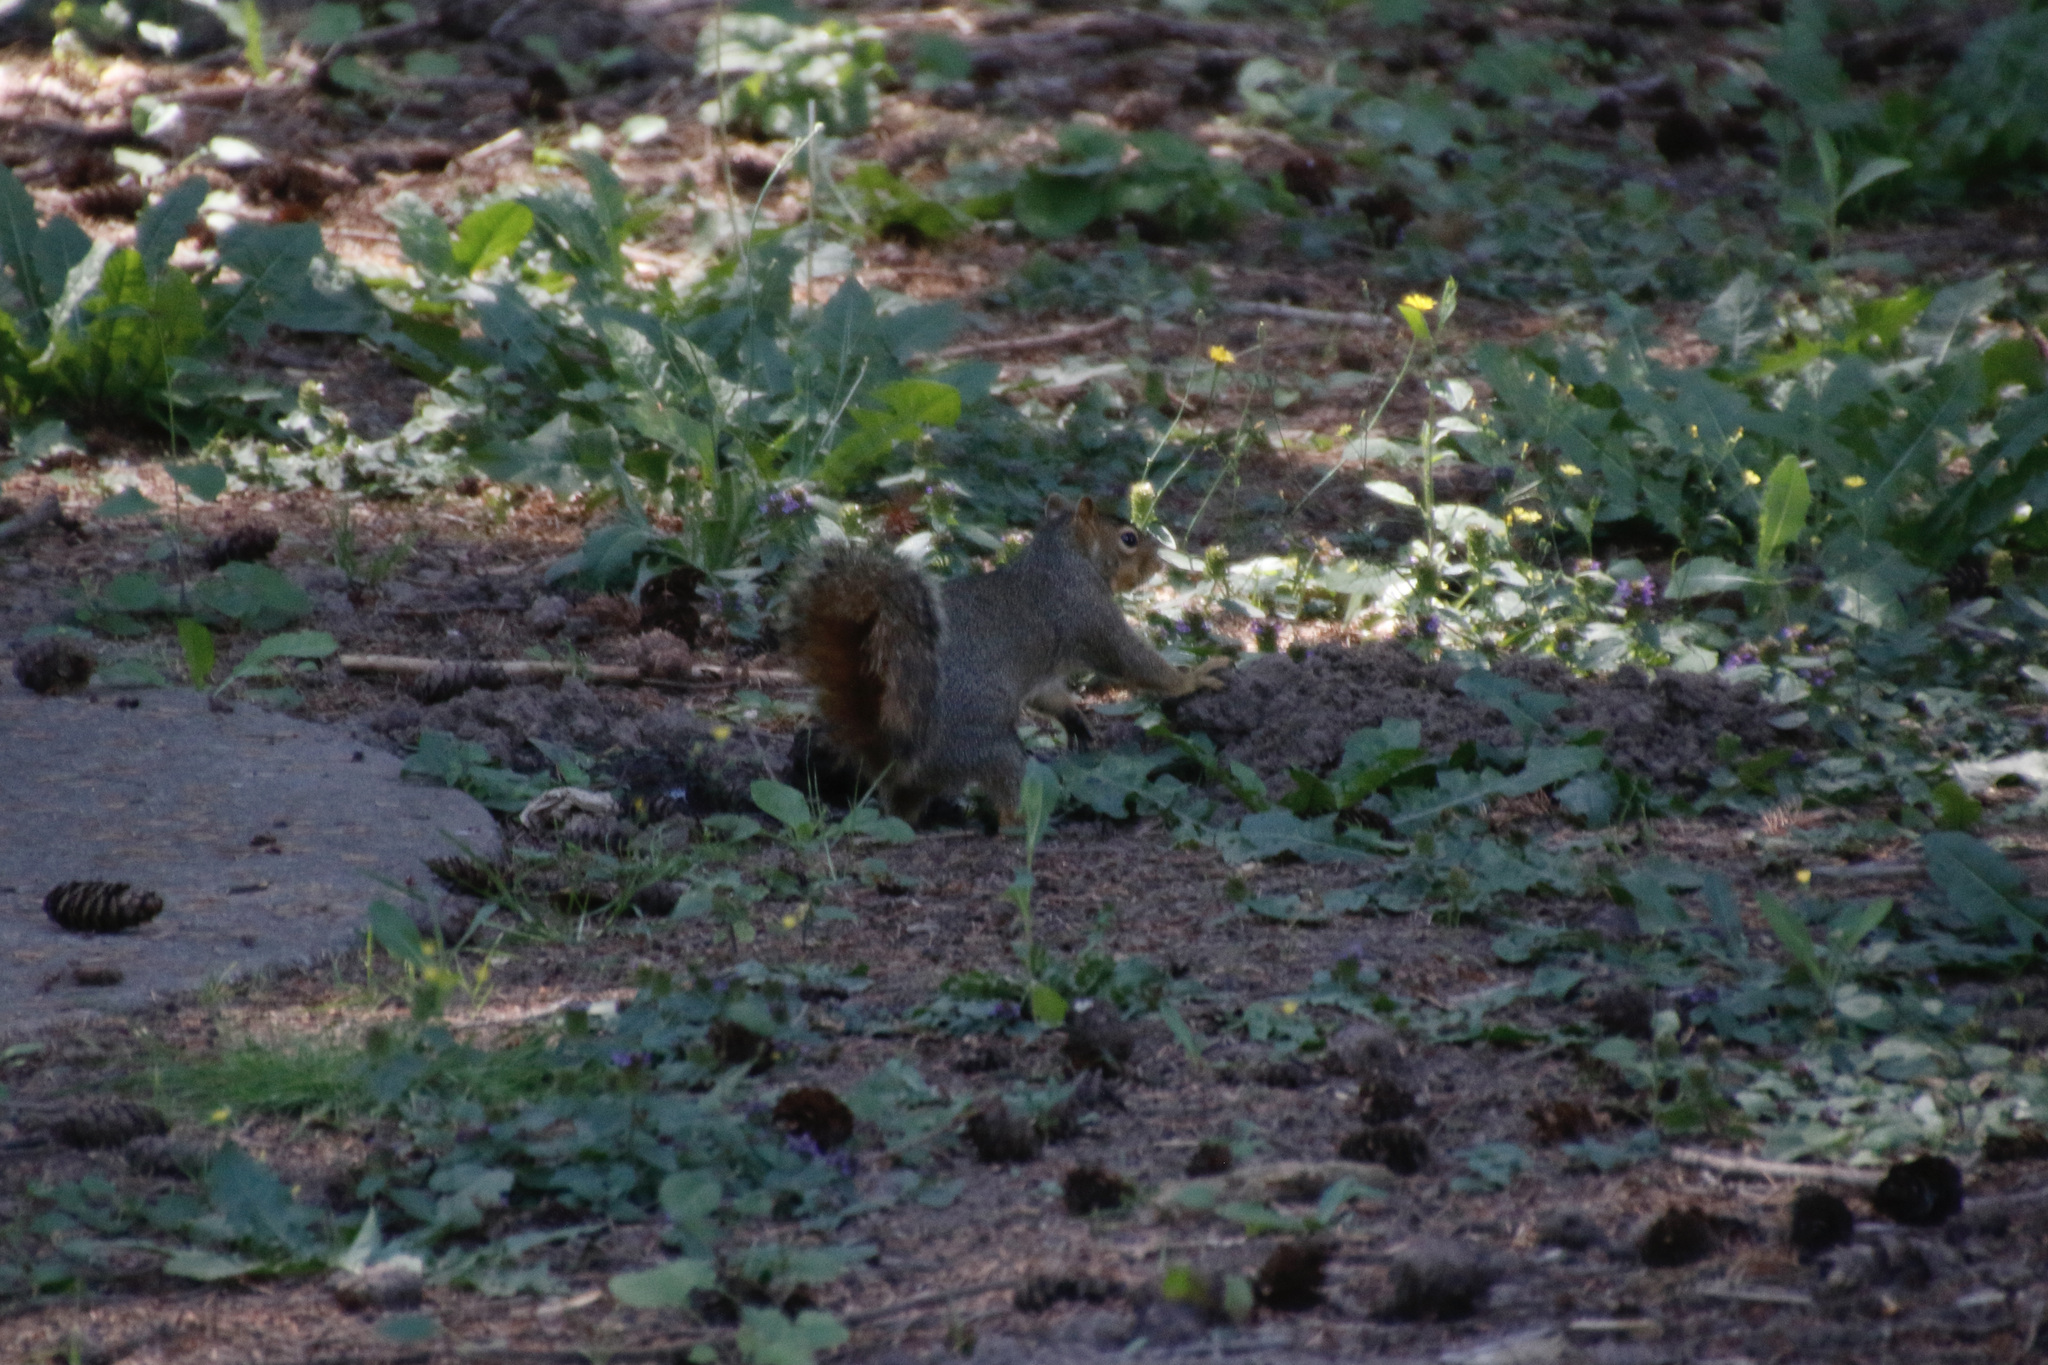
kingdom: Animalia
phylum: Chordata
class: Mammalia
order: Rodentia
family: Sciuridae
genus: Sciurus
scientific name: Sciurus niger
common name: Fox squirrel
